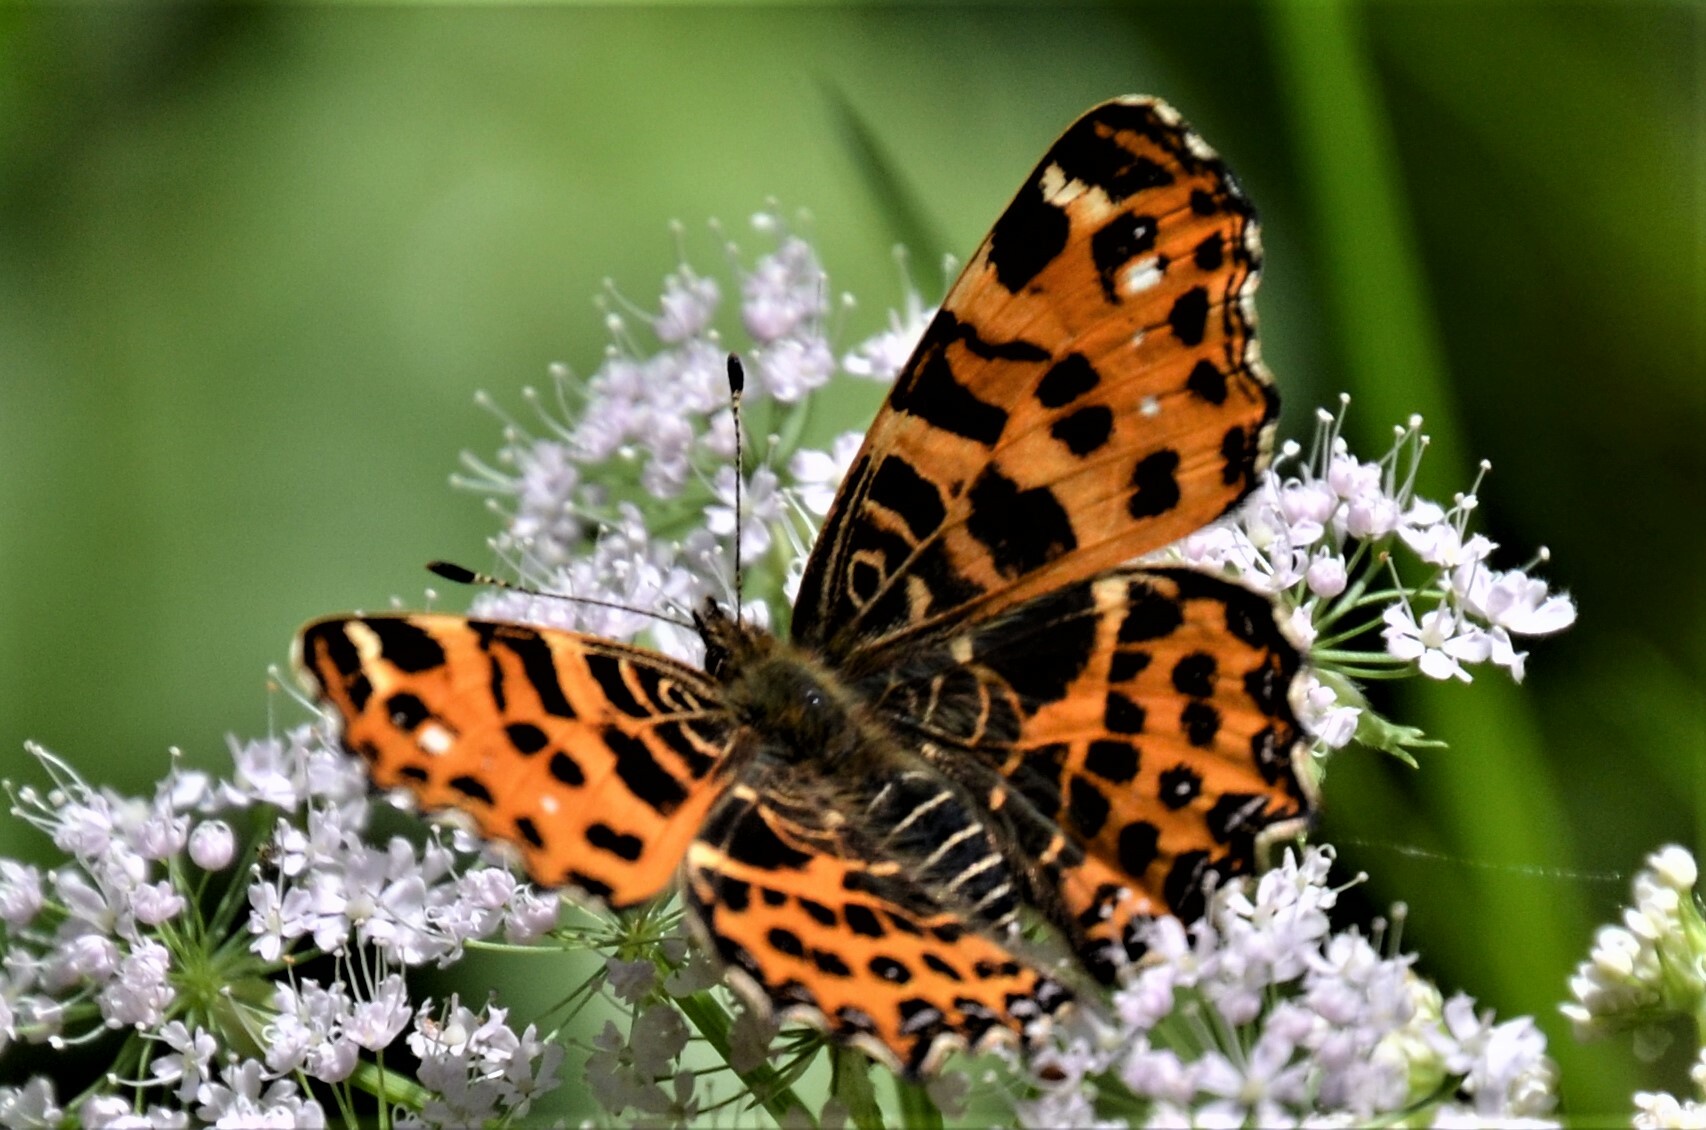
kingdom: Animalia
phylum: Arthropoda
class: Insecta
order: Lepidoptera
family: Nymphalidae
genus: Araschnia
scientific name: Araschnia levana
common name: Map butterfly
